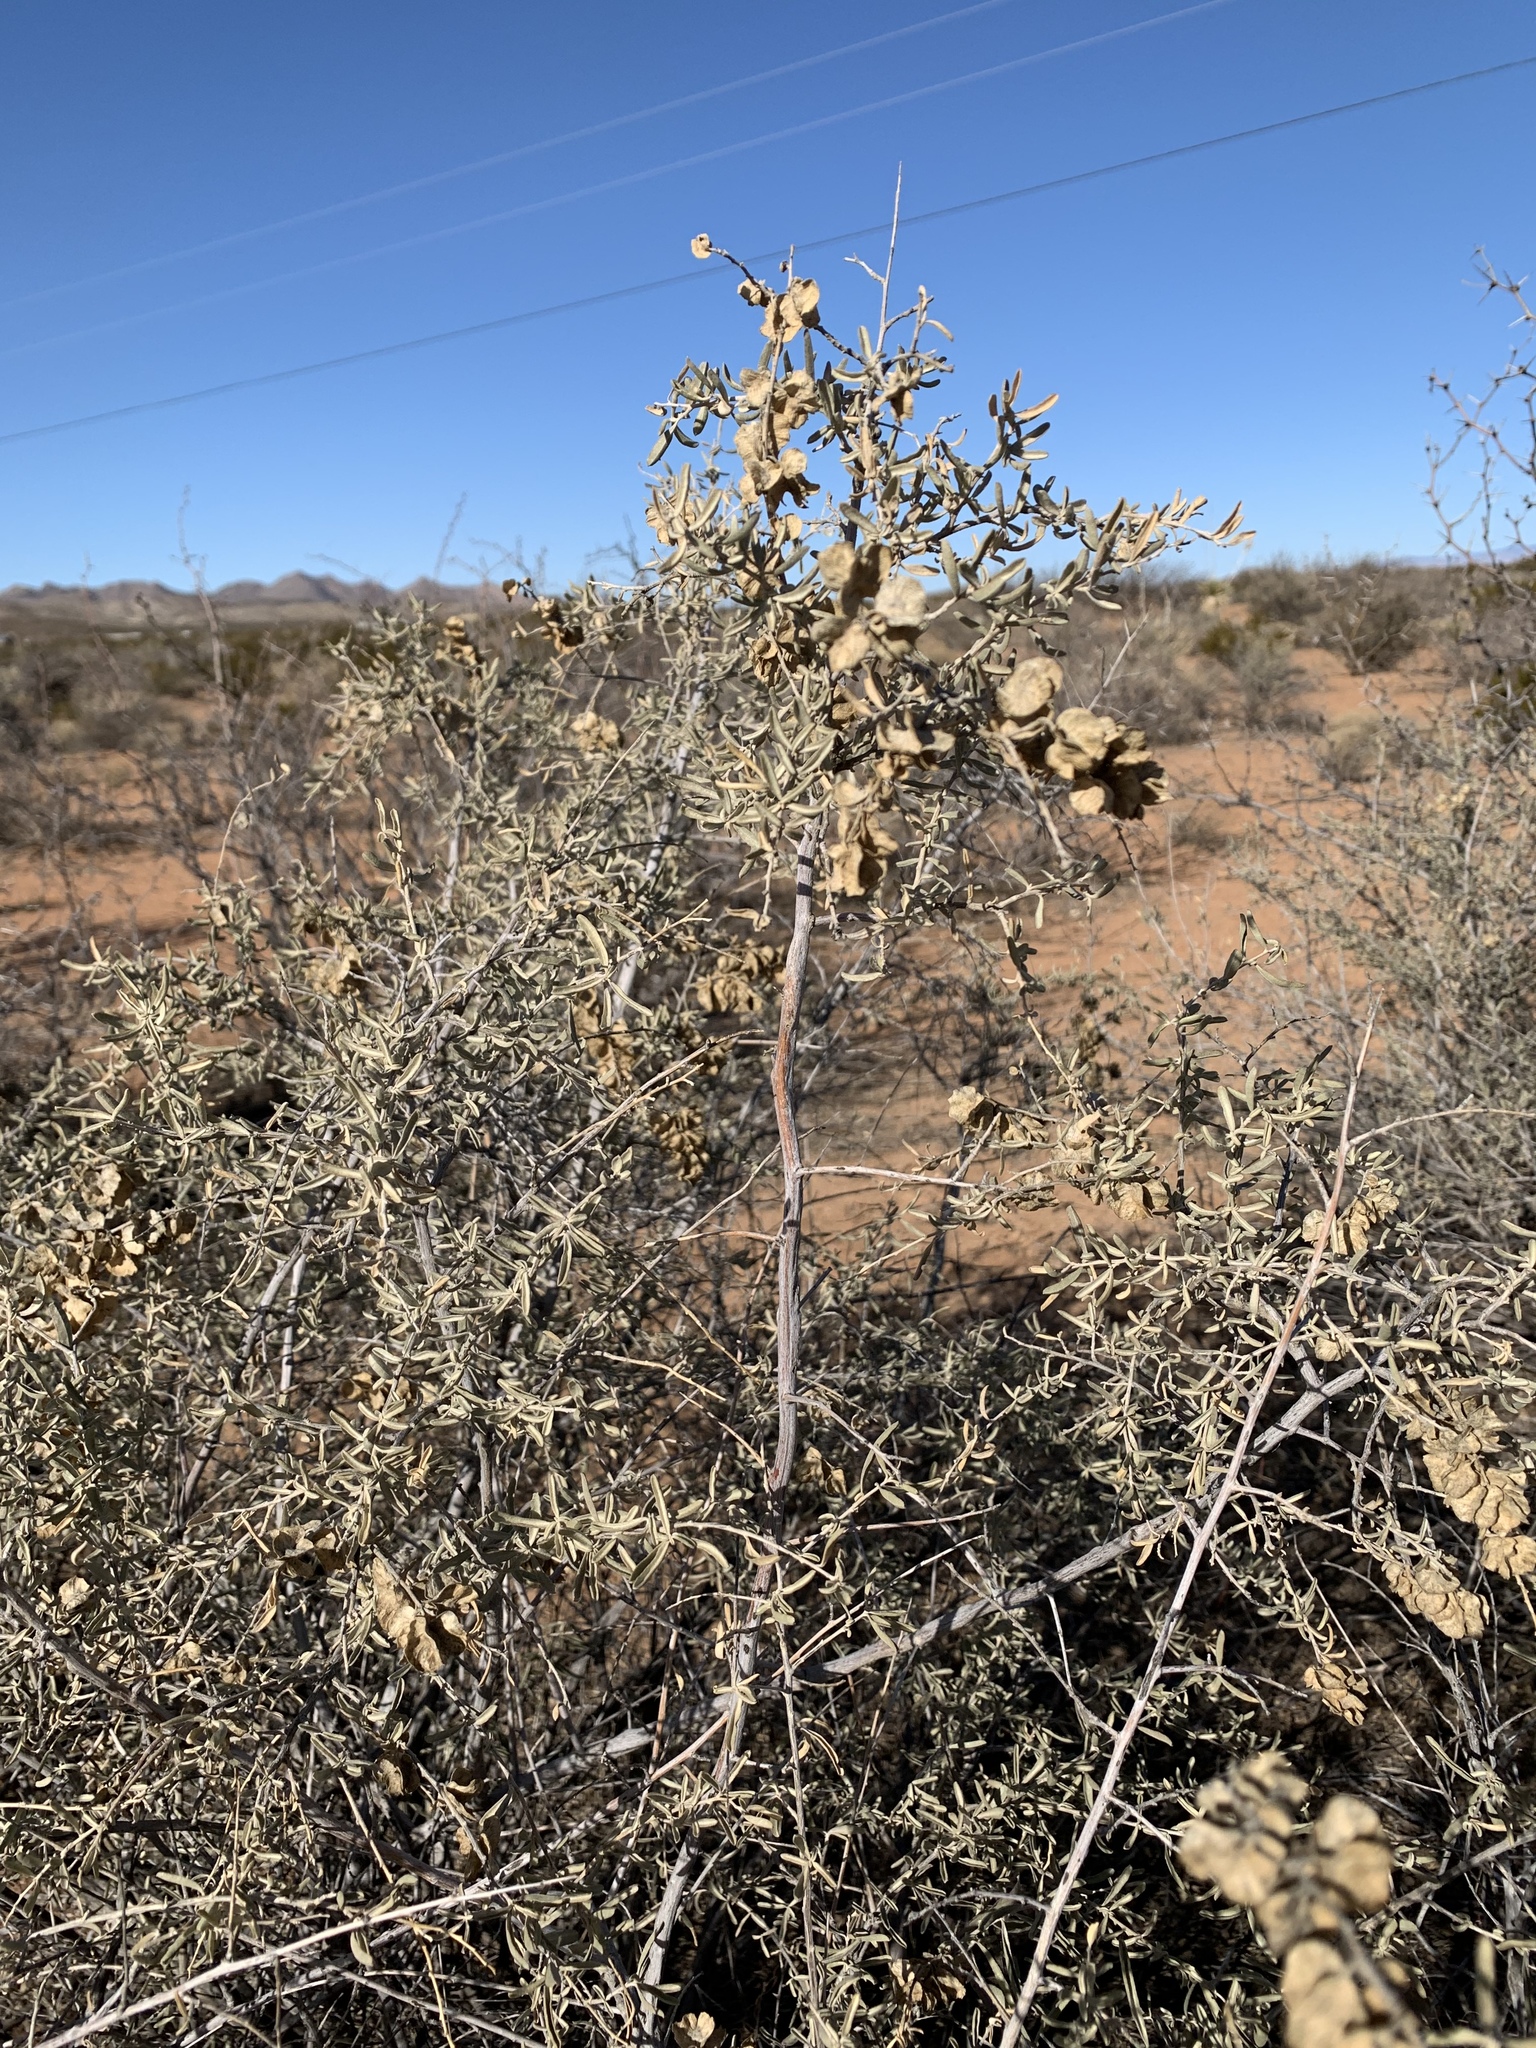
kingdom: Plantae
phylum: Tracheophyta
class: Magnoliopsida
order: Caryophyllales
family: Amaranthaceae
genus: Atriplex
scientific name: Atriplex canescens
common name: Four-wing saltbush
